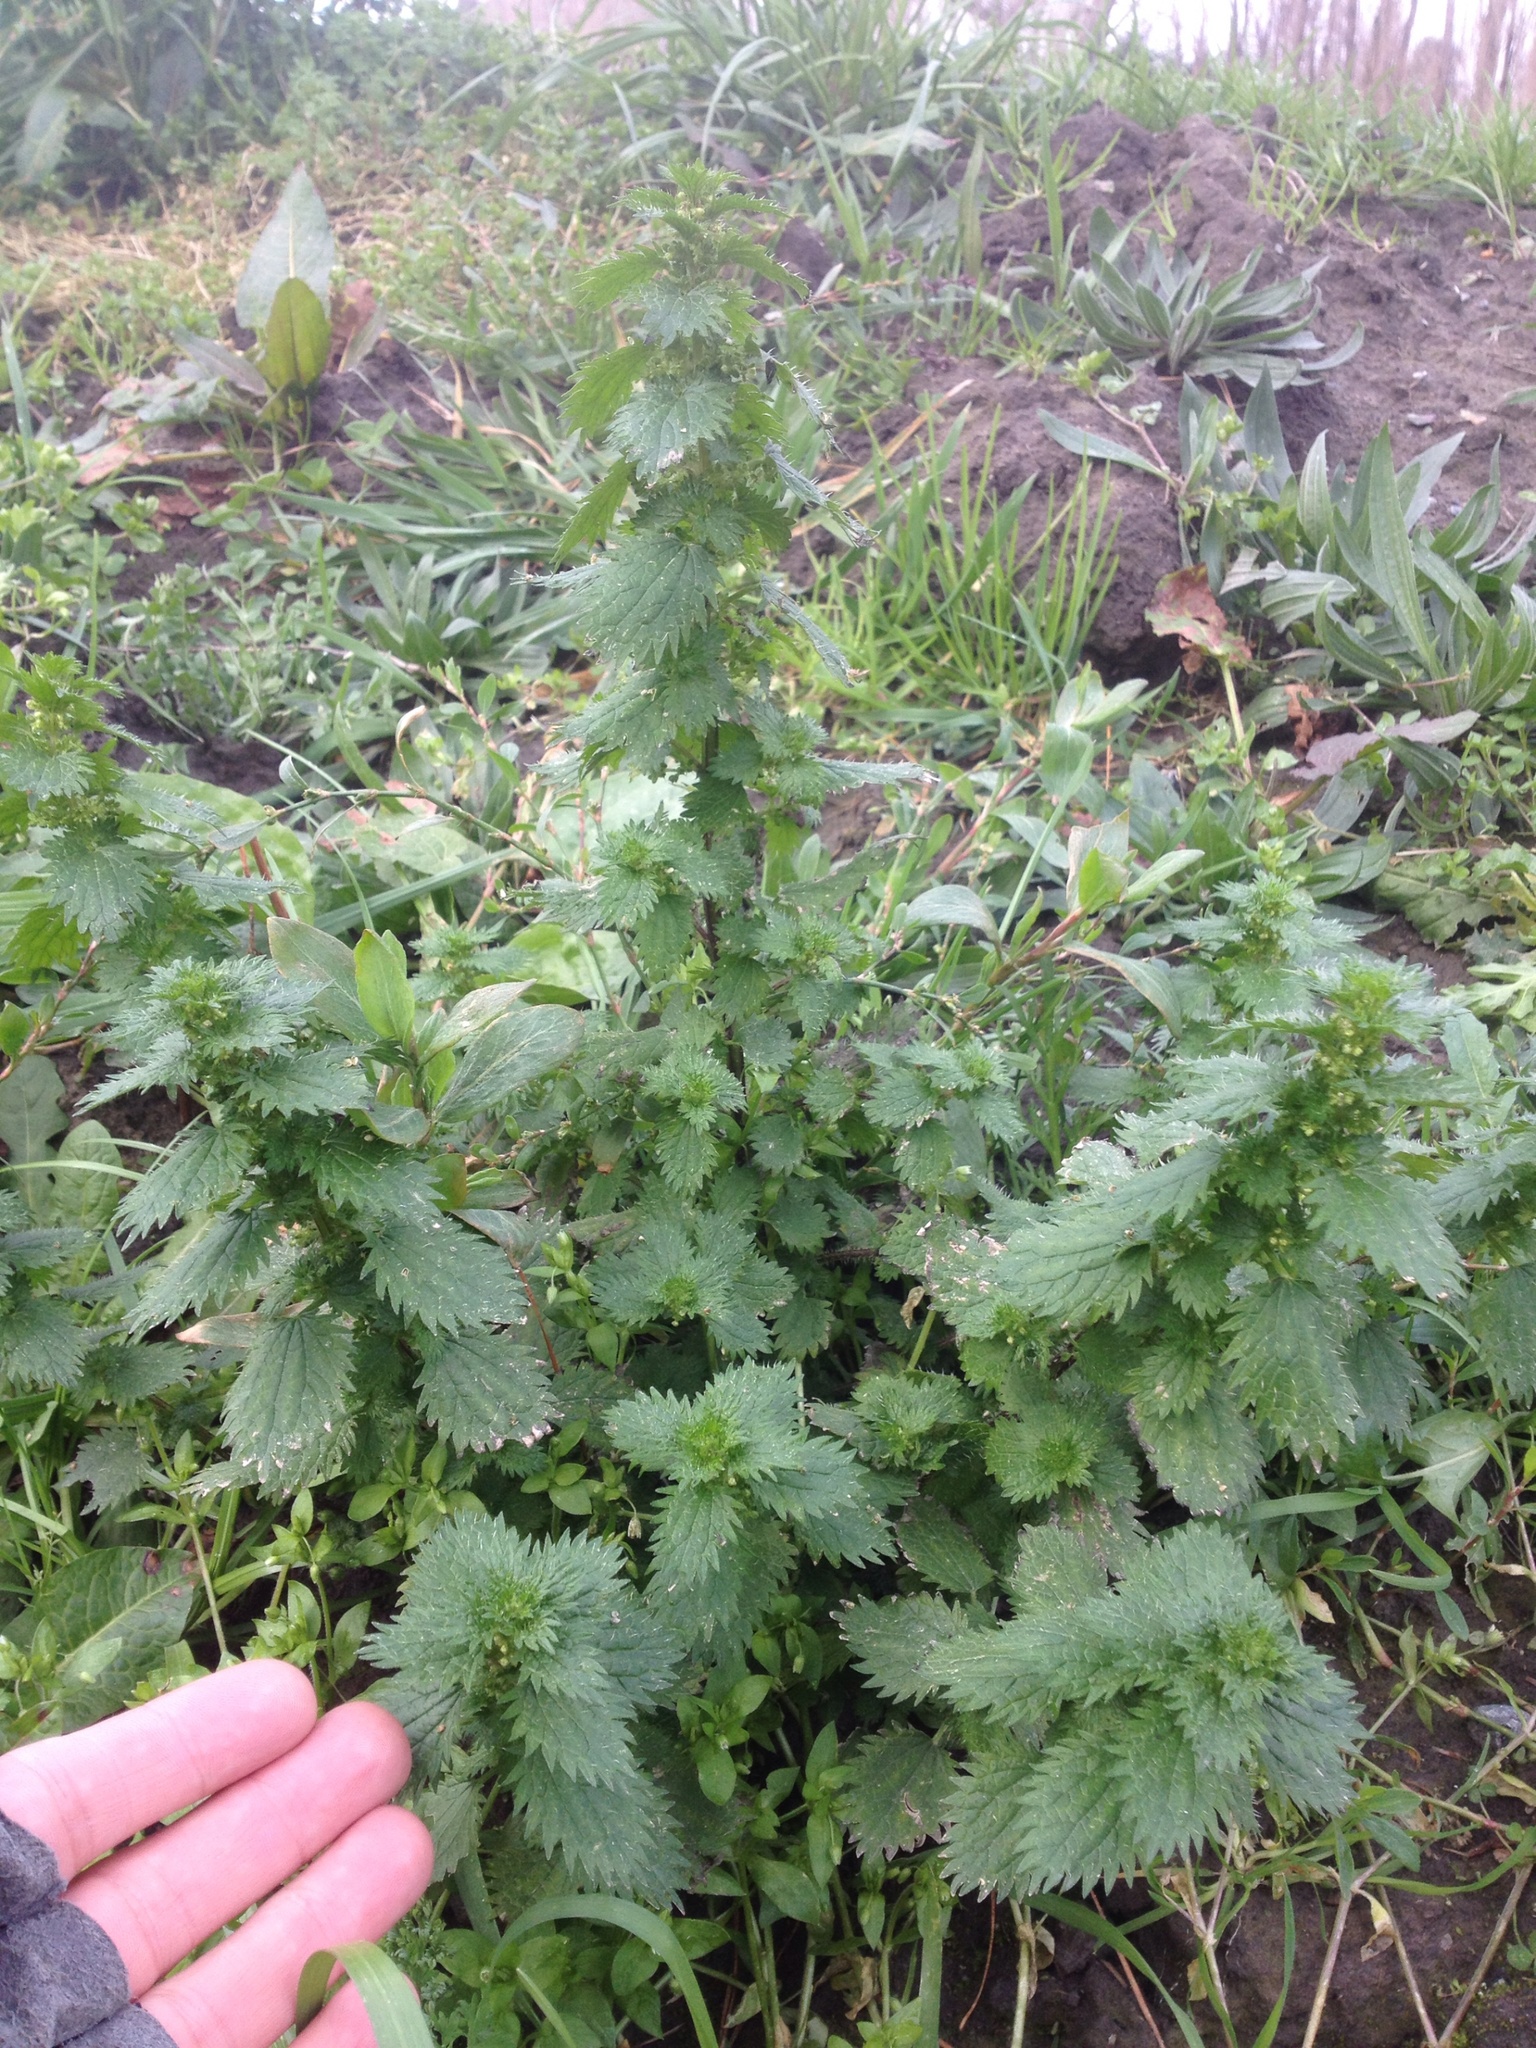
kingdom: Plantae
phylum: Tracheophyta
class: Magnoliopsida
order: Rosales
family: Urticaceae
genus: Urtica
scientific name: Urtica urens
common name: Dwarf nettle
